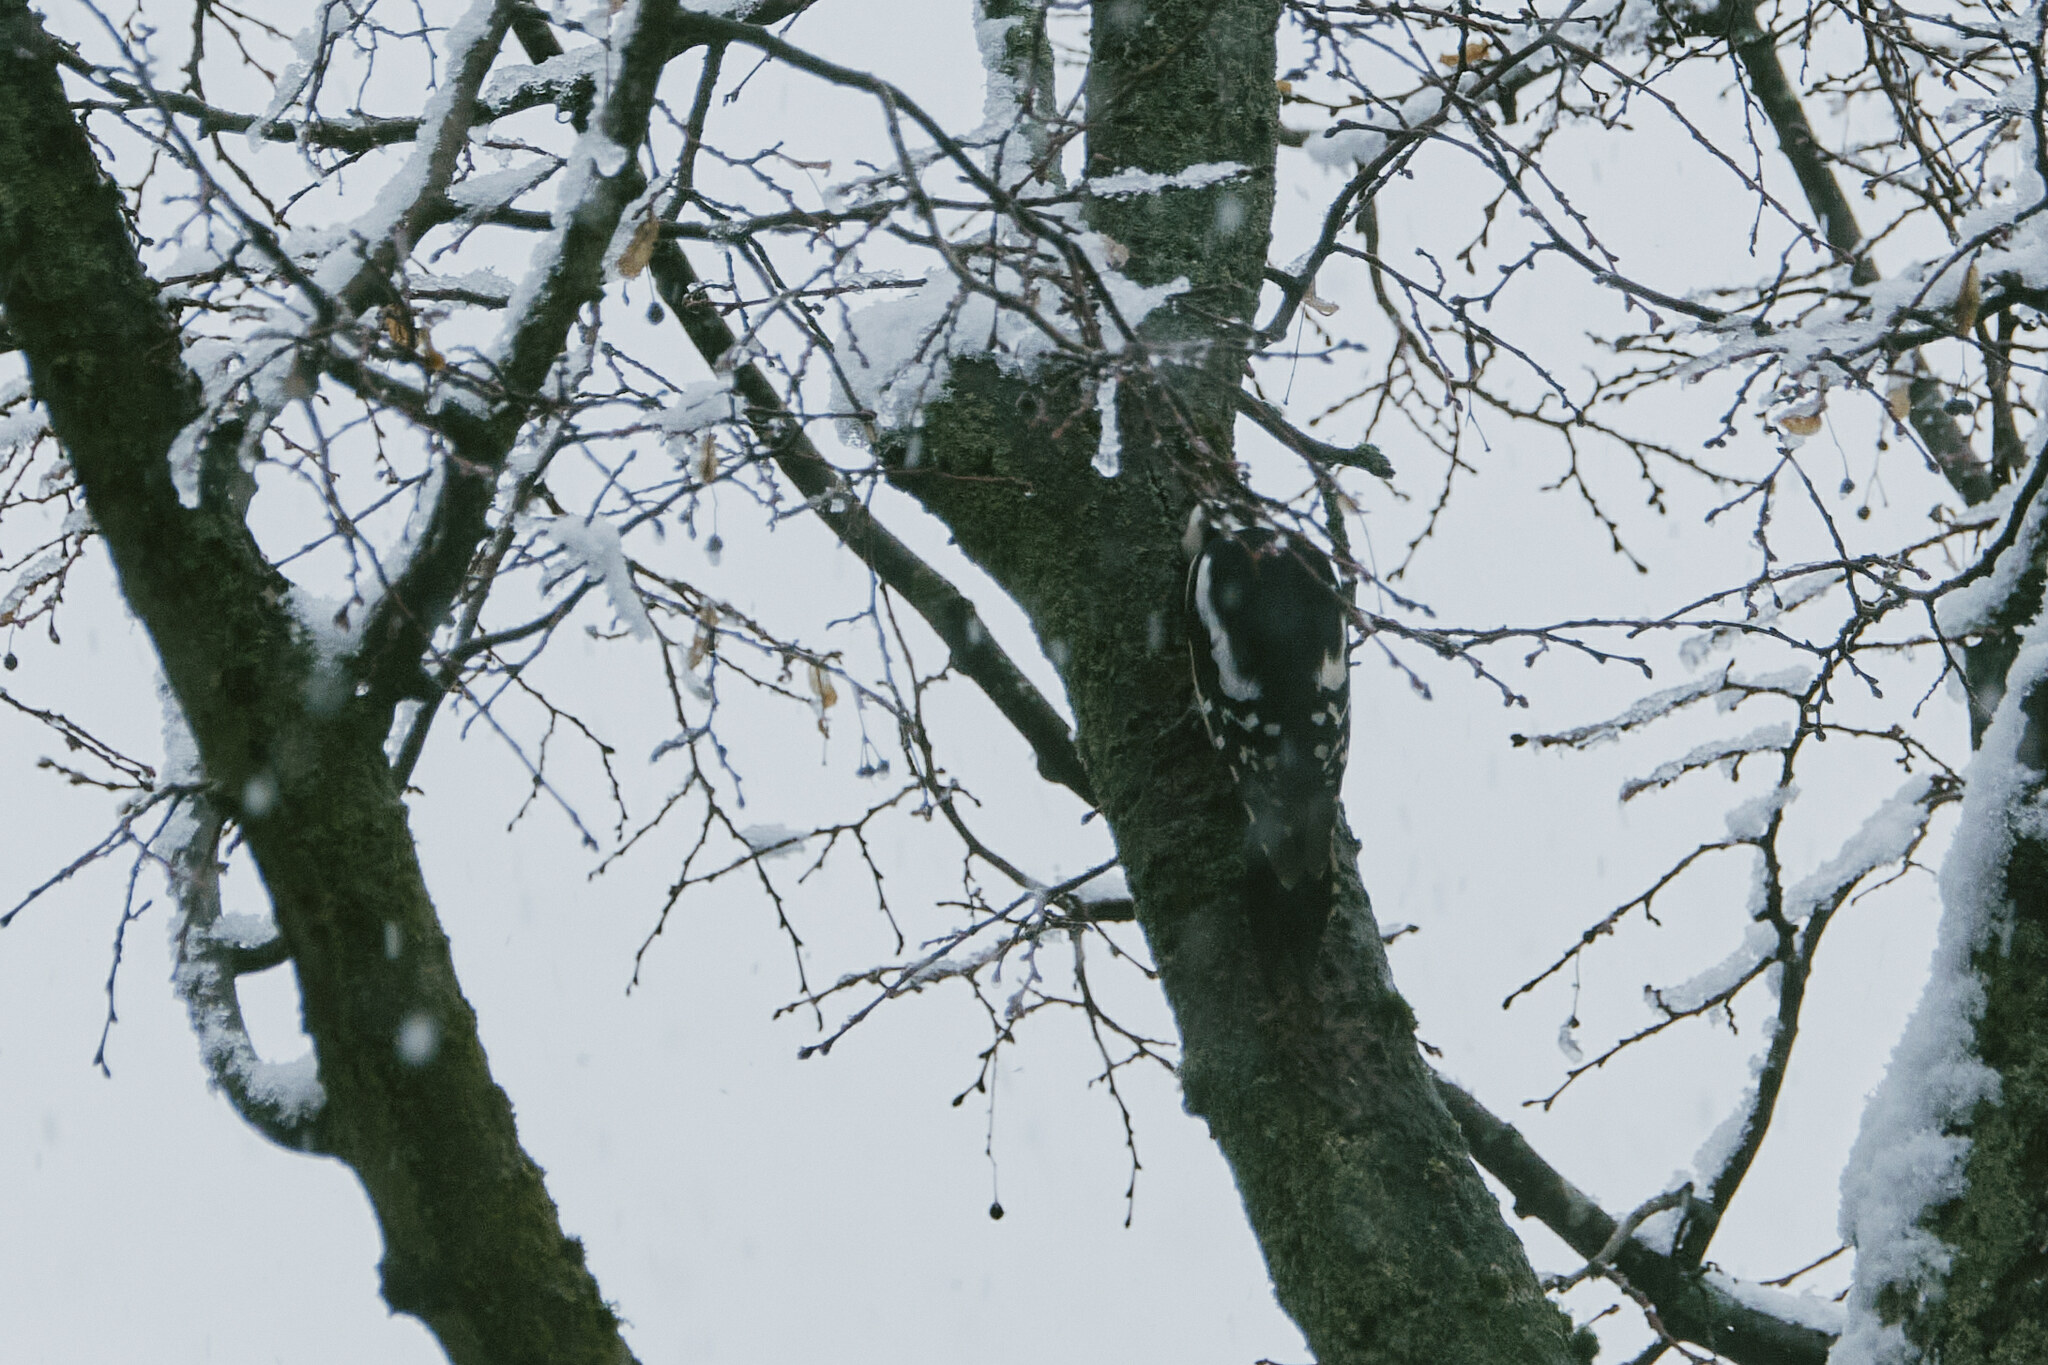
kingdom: Animalia
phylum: Chordata
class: Aves
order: Piciformes
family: Picidae
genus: Dendrocopos
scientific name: Dendrocopos major
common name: Great spotted woodpecker
